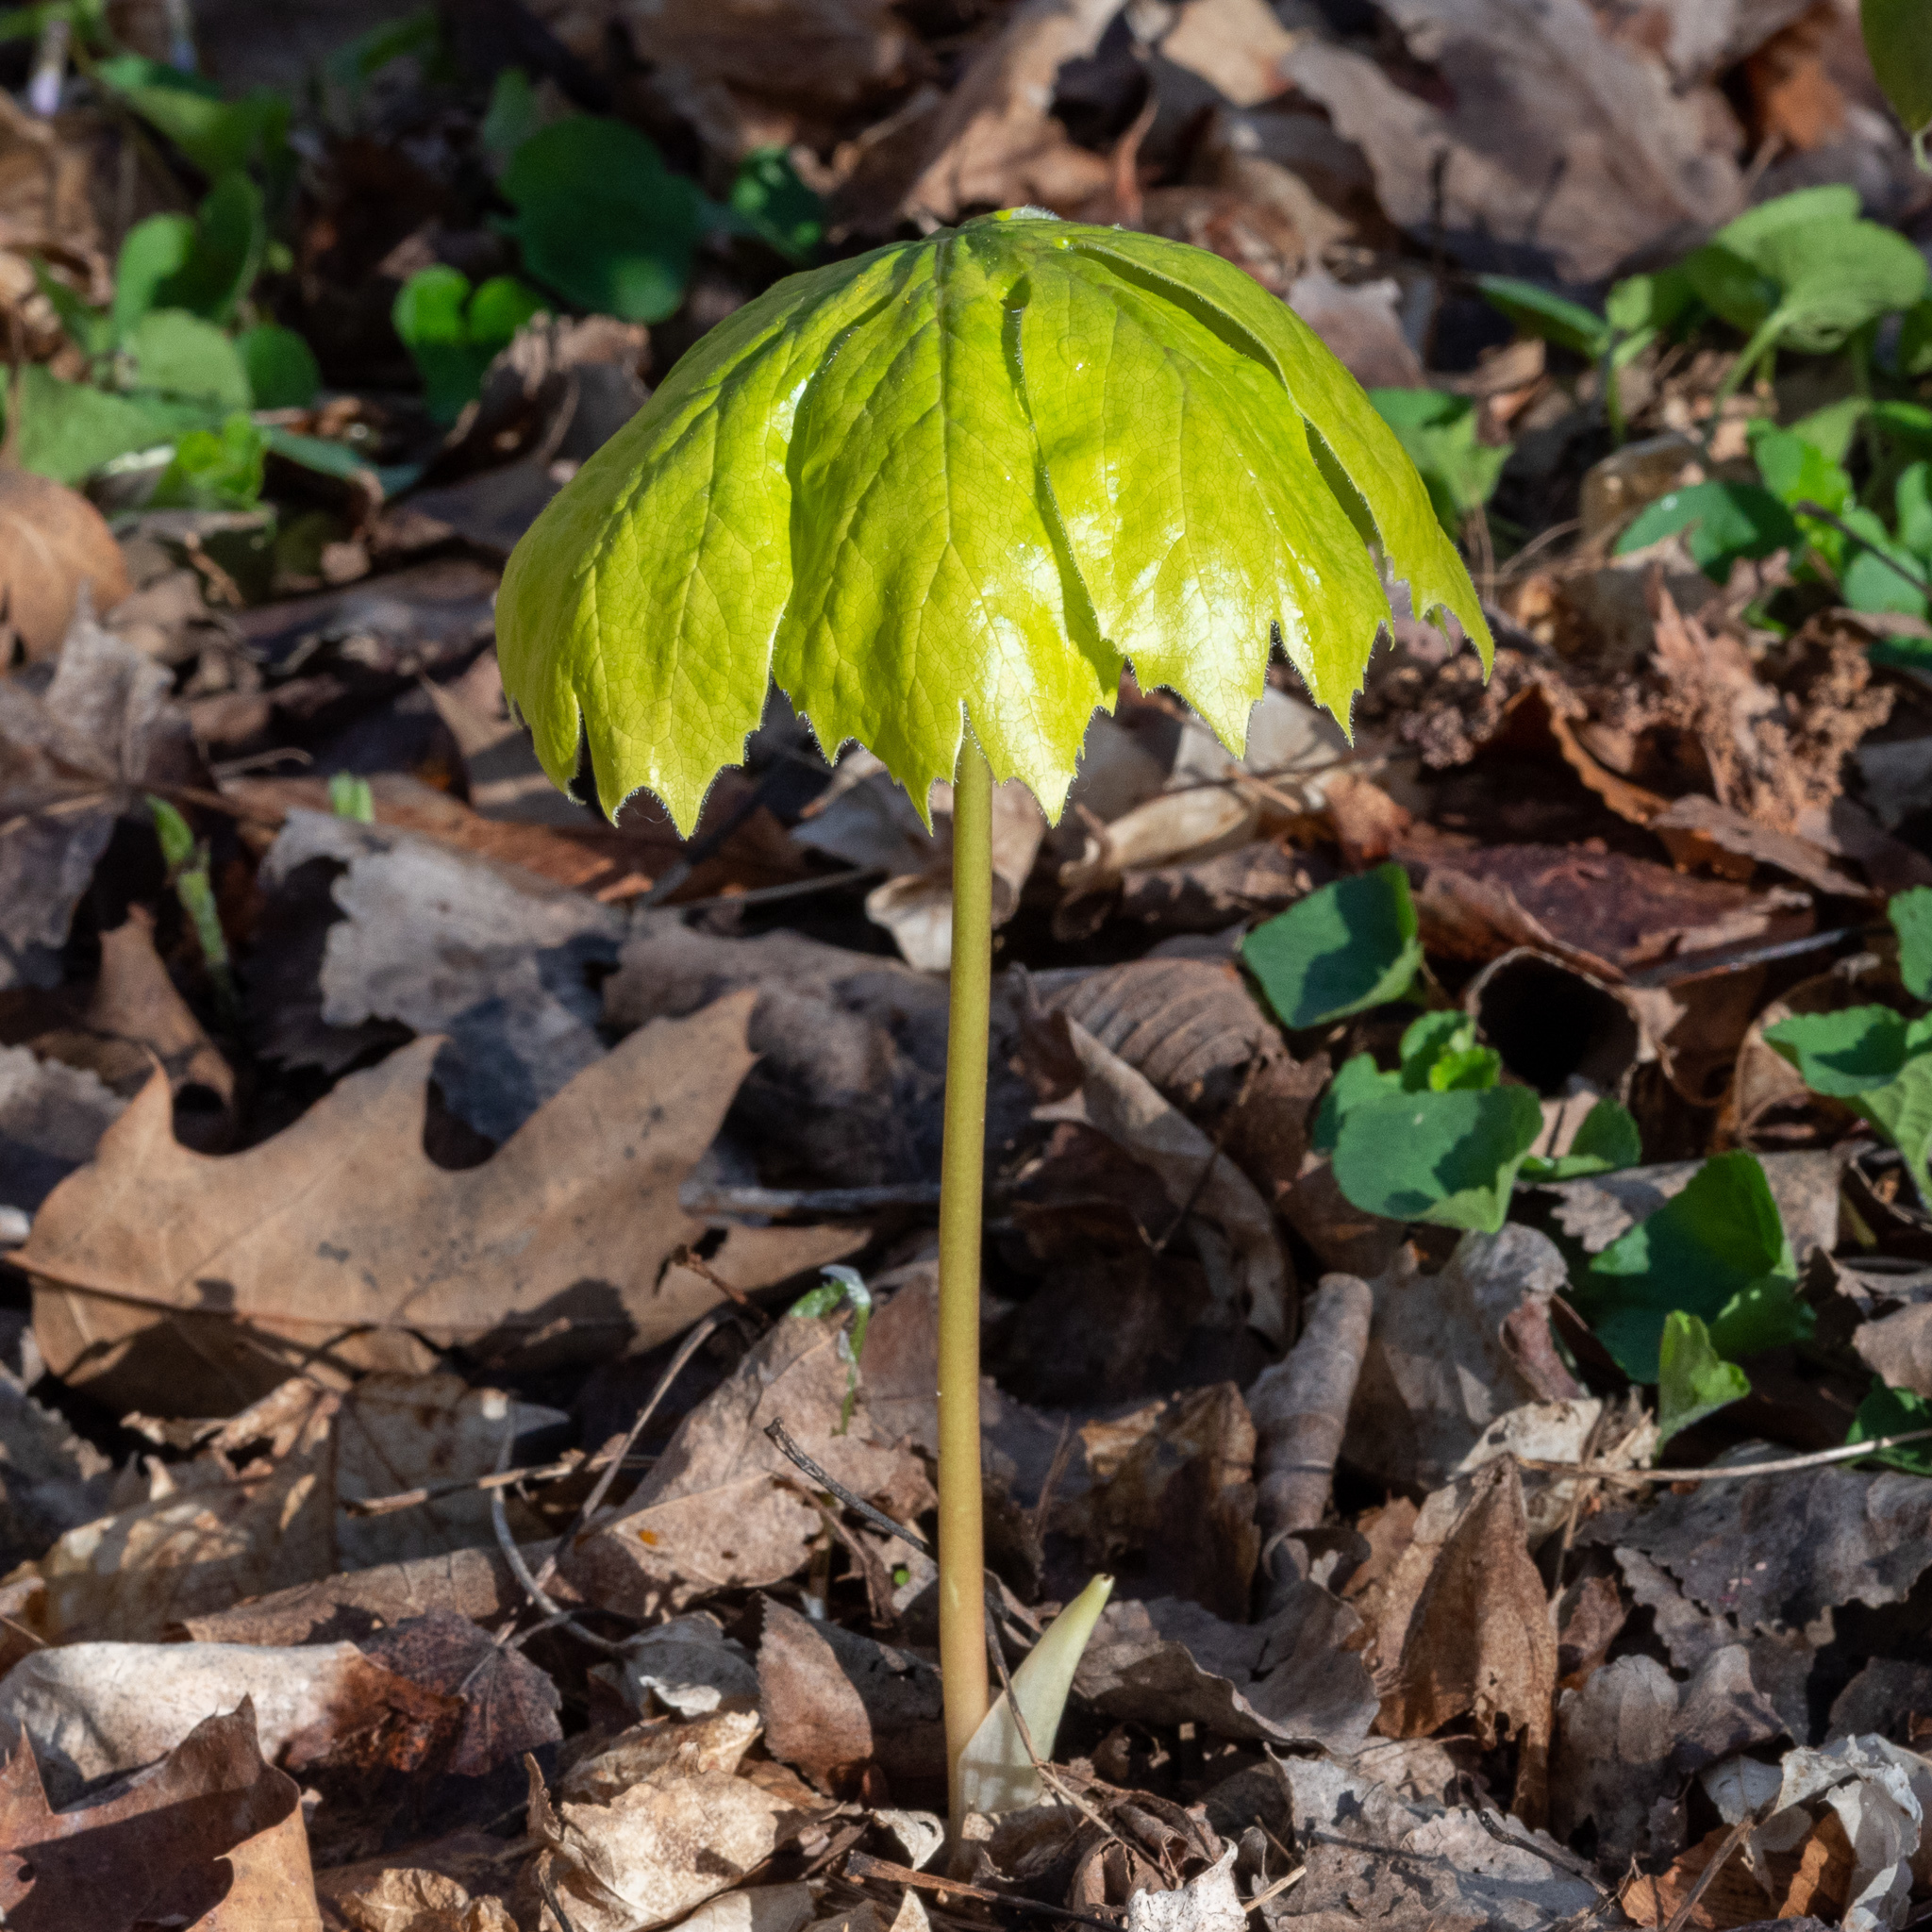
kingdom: Plantae
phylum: Tracheophyta
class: Magnoliopsida
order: Ranunculales
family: Berberidaceae
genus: Podophyllum
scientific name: Podophyllum peltatum
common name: Wild mandrake
